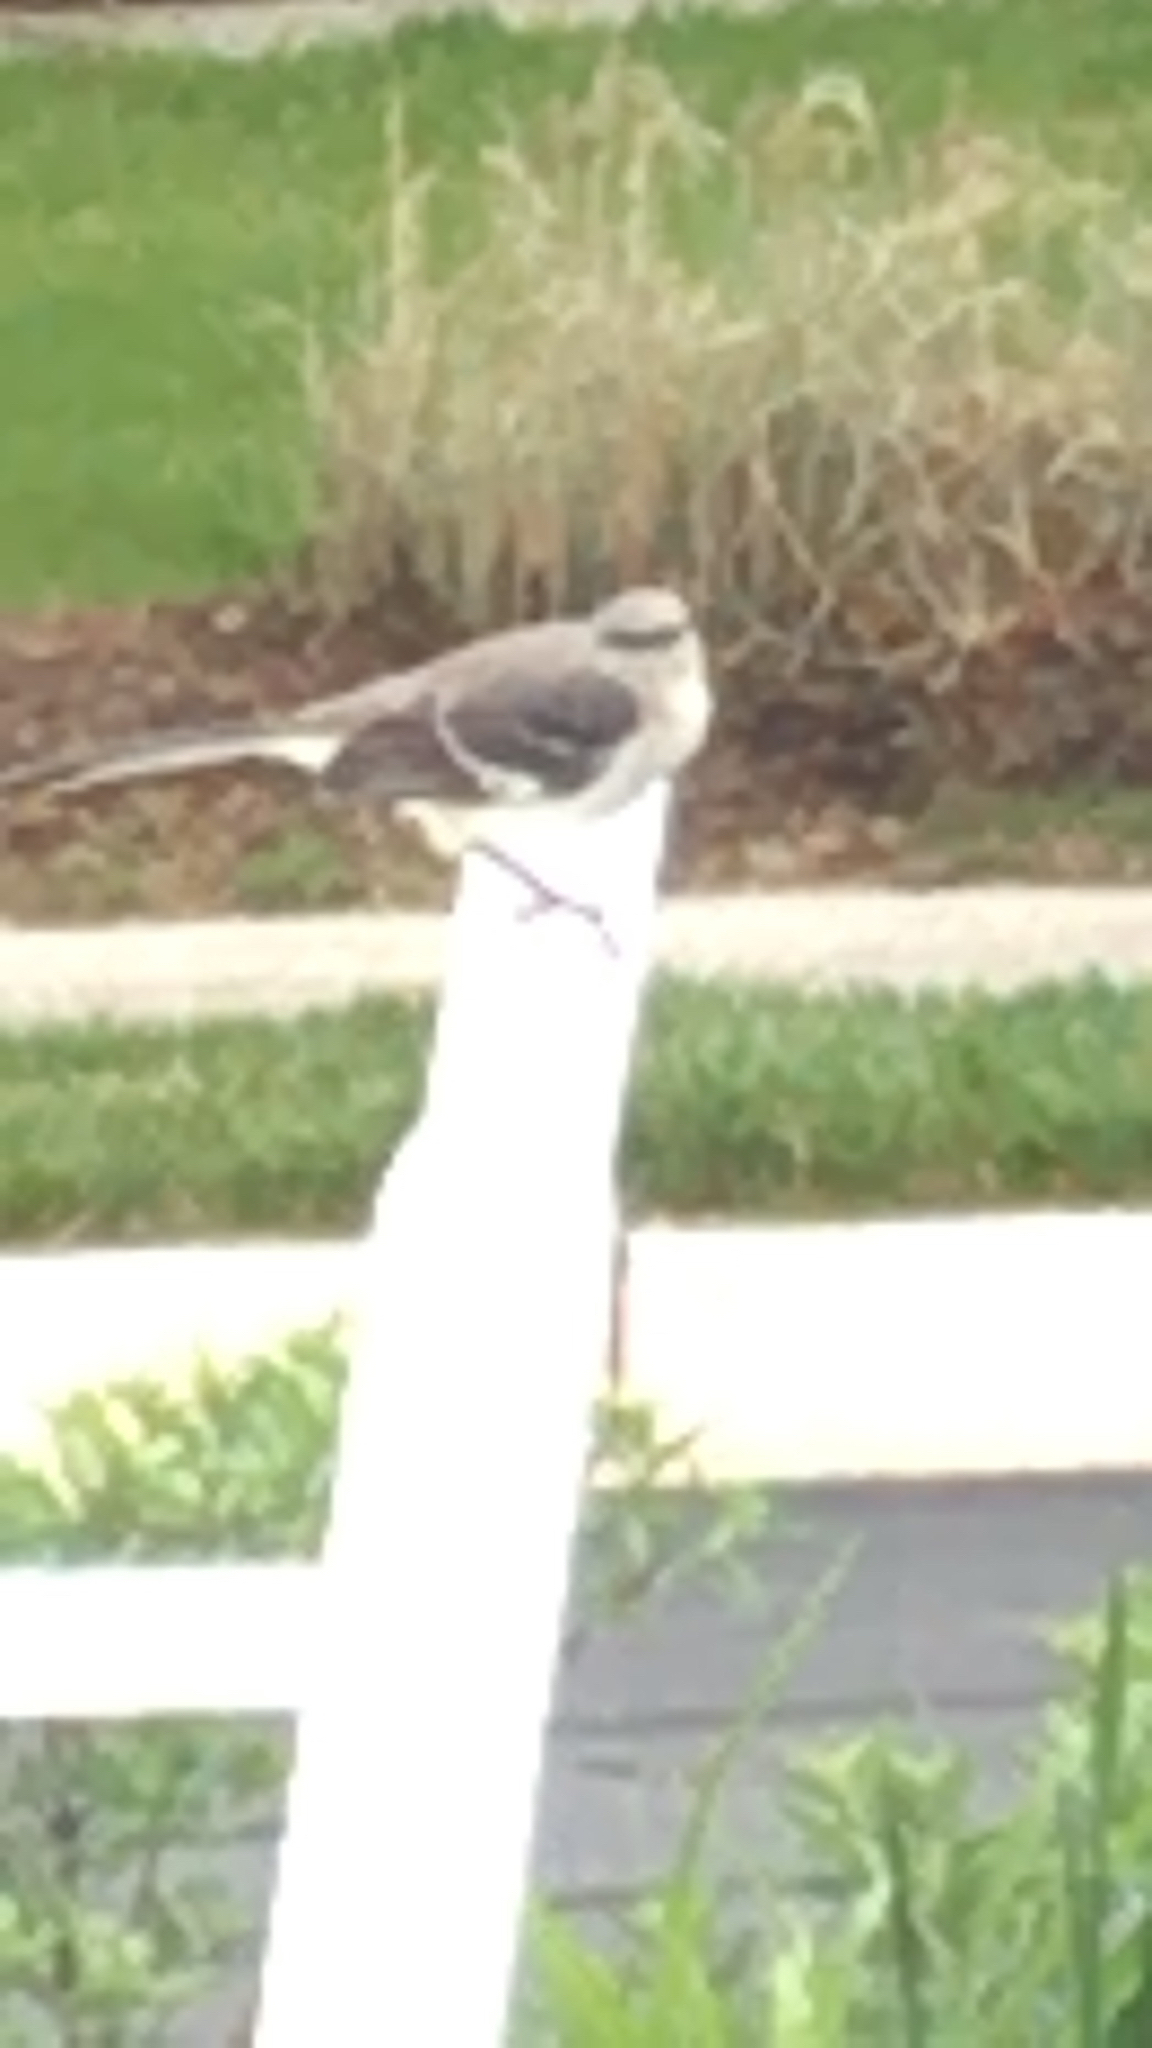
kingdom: Animalia
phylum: Chordata
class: Aves
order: Passeriformes
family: Mimidae
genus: Mimus
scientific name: Mimus polyglottos
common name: Northern mockingbird
